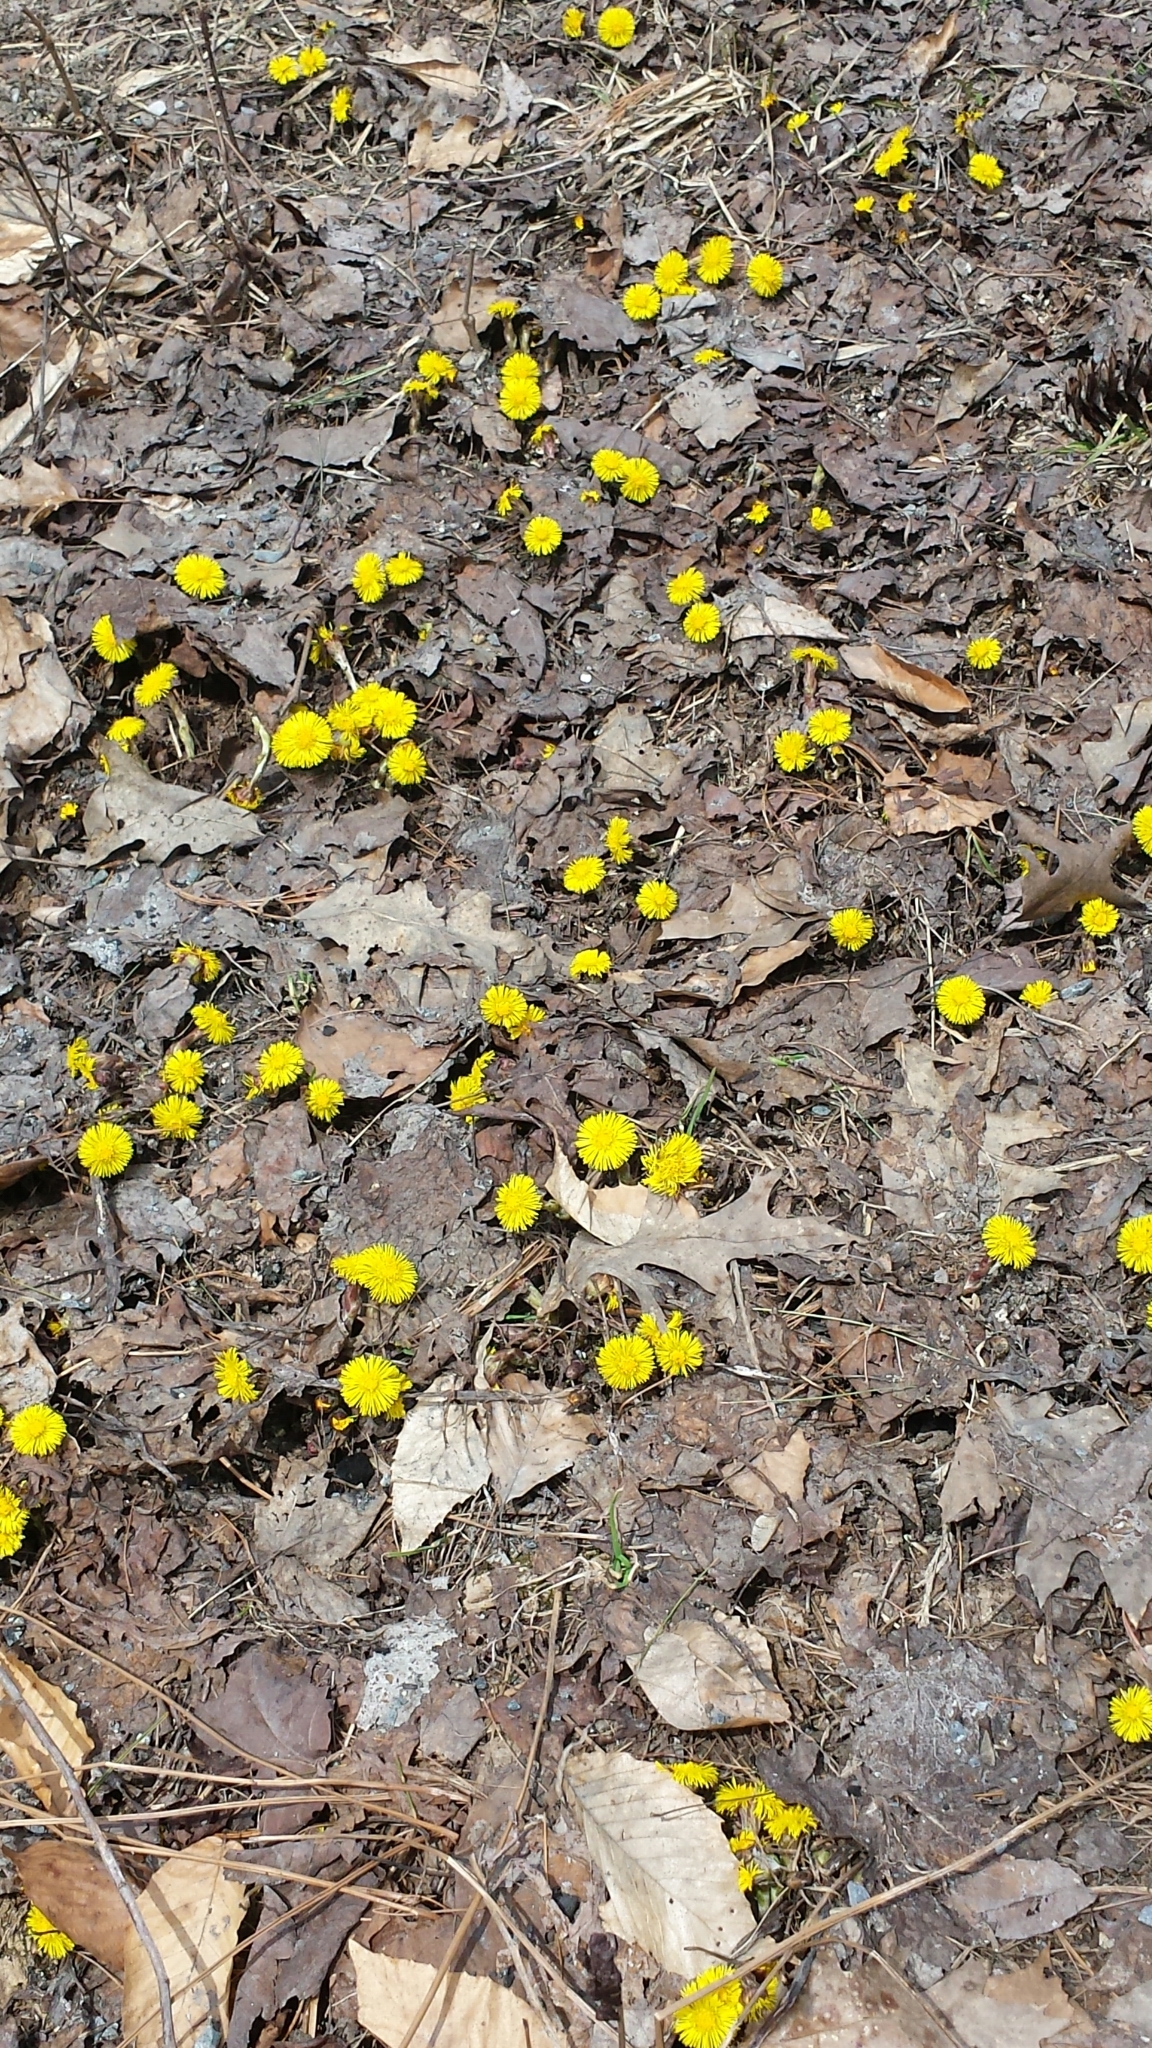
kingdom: Plantae
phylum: Tracheophyta
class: Magnoliopsida
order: Asterales
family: Asteraceae
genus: Tussilago
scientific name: Tussilago farfara
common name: Coltsfoot
